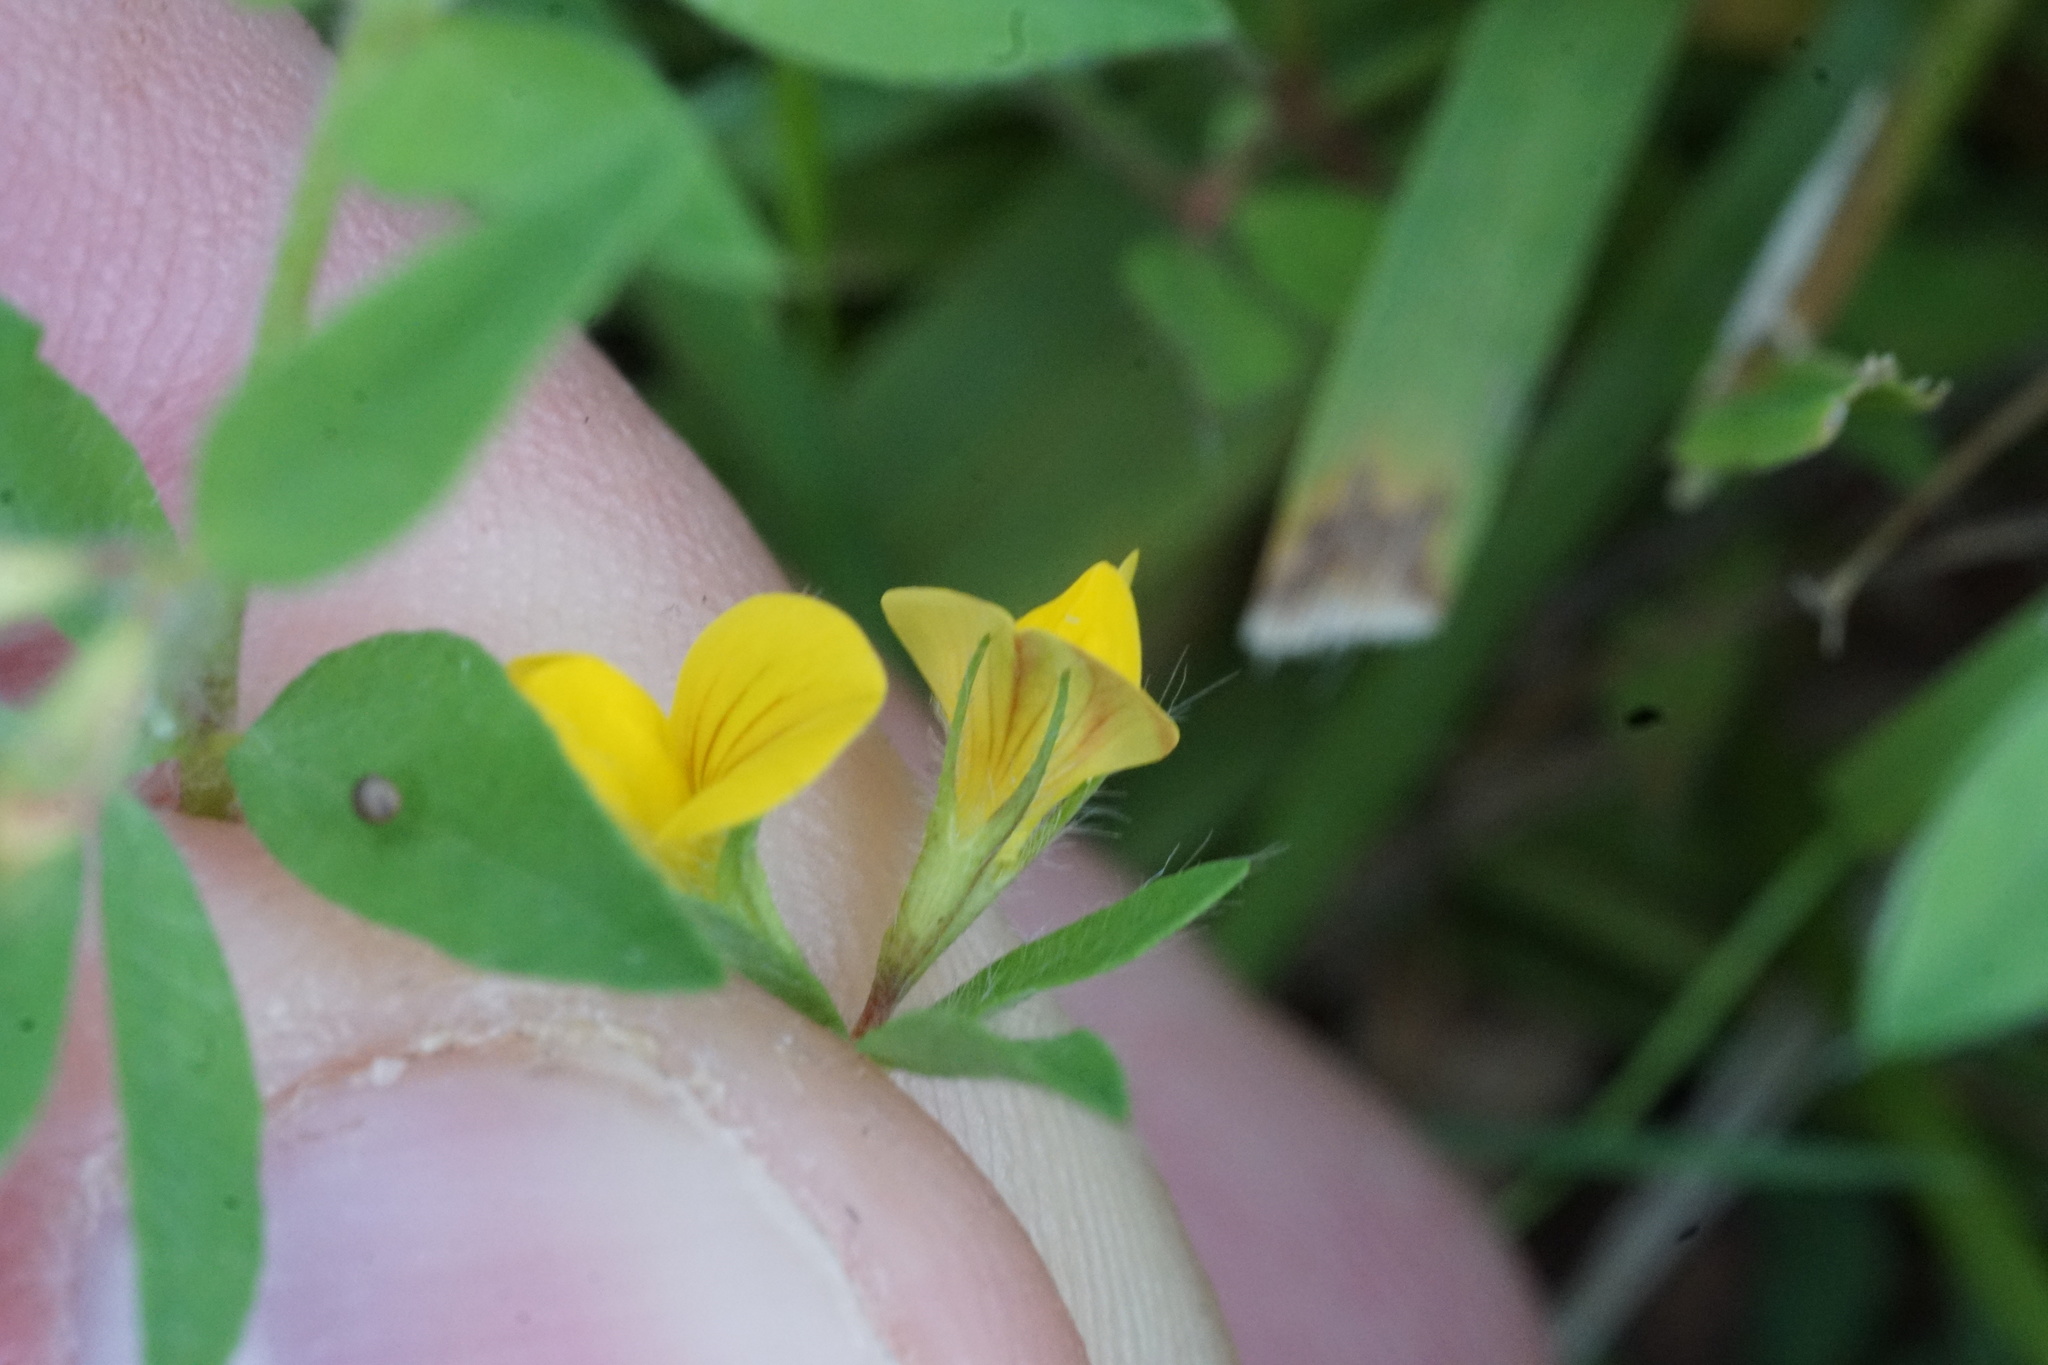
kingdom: Plantae
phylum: Tracheophyta
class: Magnoliopsida
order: Fabales
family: Fabaceae
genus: Lotus
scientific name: Lotus corniculatus
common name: Common bird's-foot-trefoil
